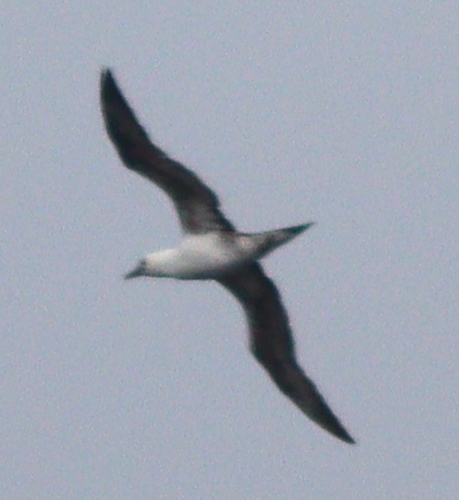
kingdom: Animalia
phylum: Chordata
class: Aves
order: Suliformes
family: Sulidae
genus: Morus
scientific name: Morus bassanus
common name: Northern gannet
